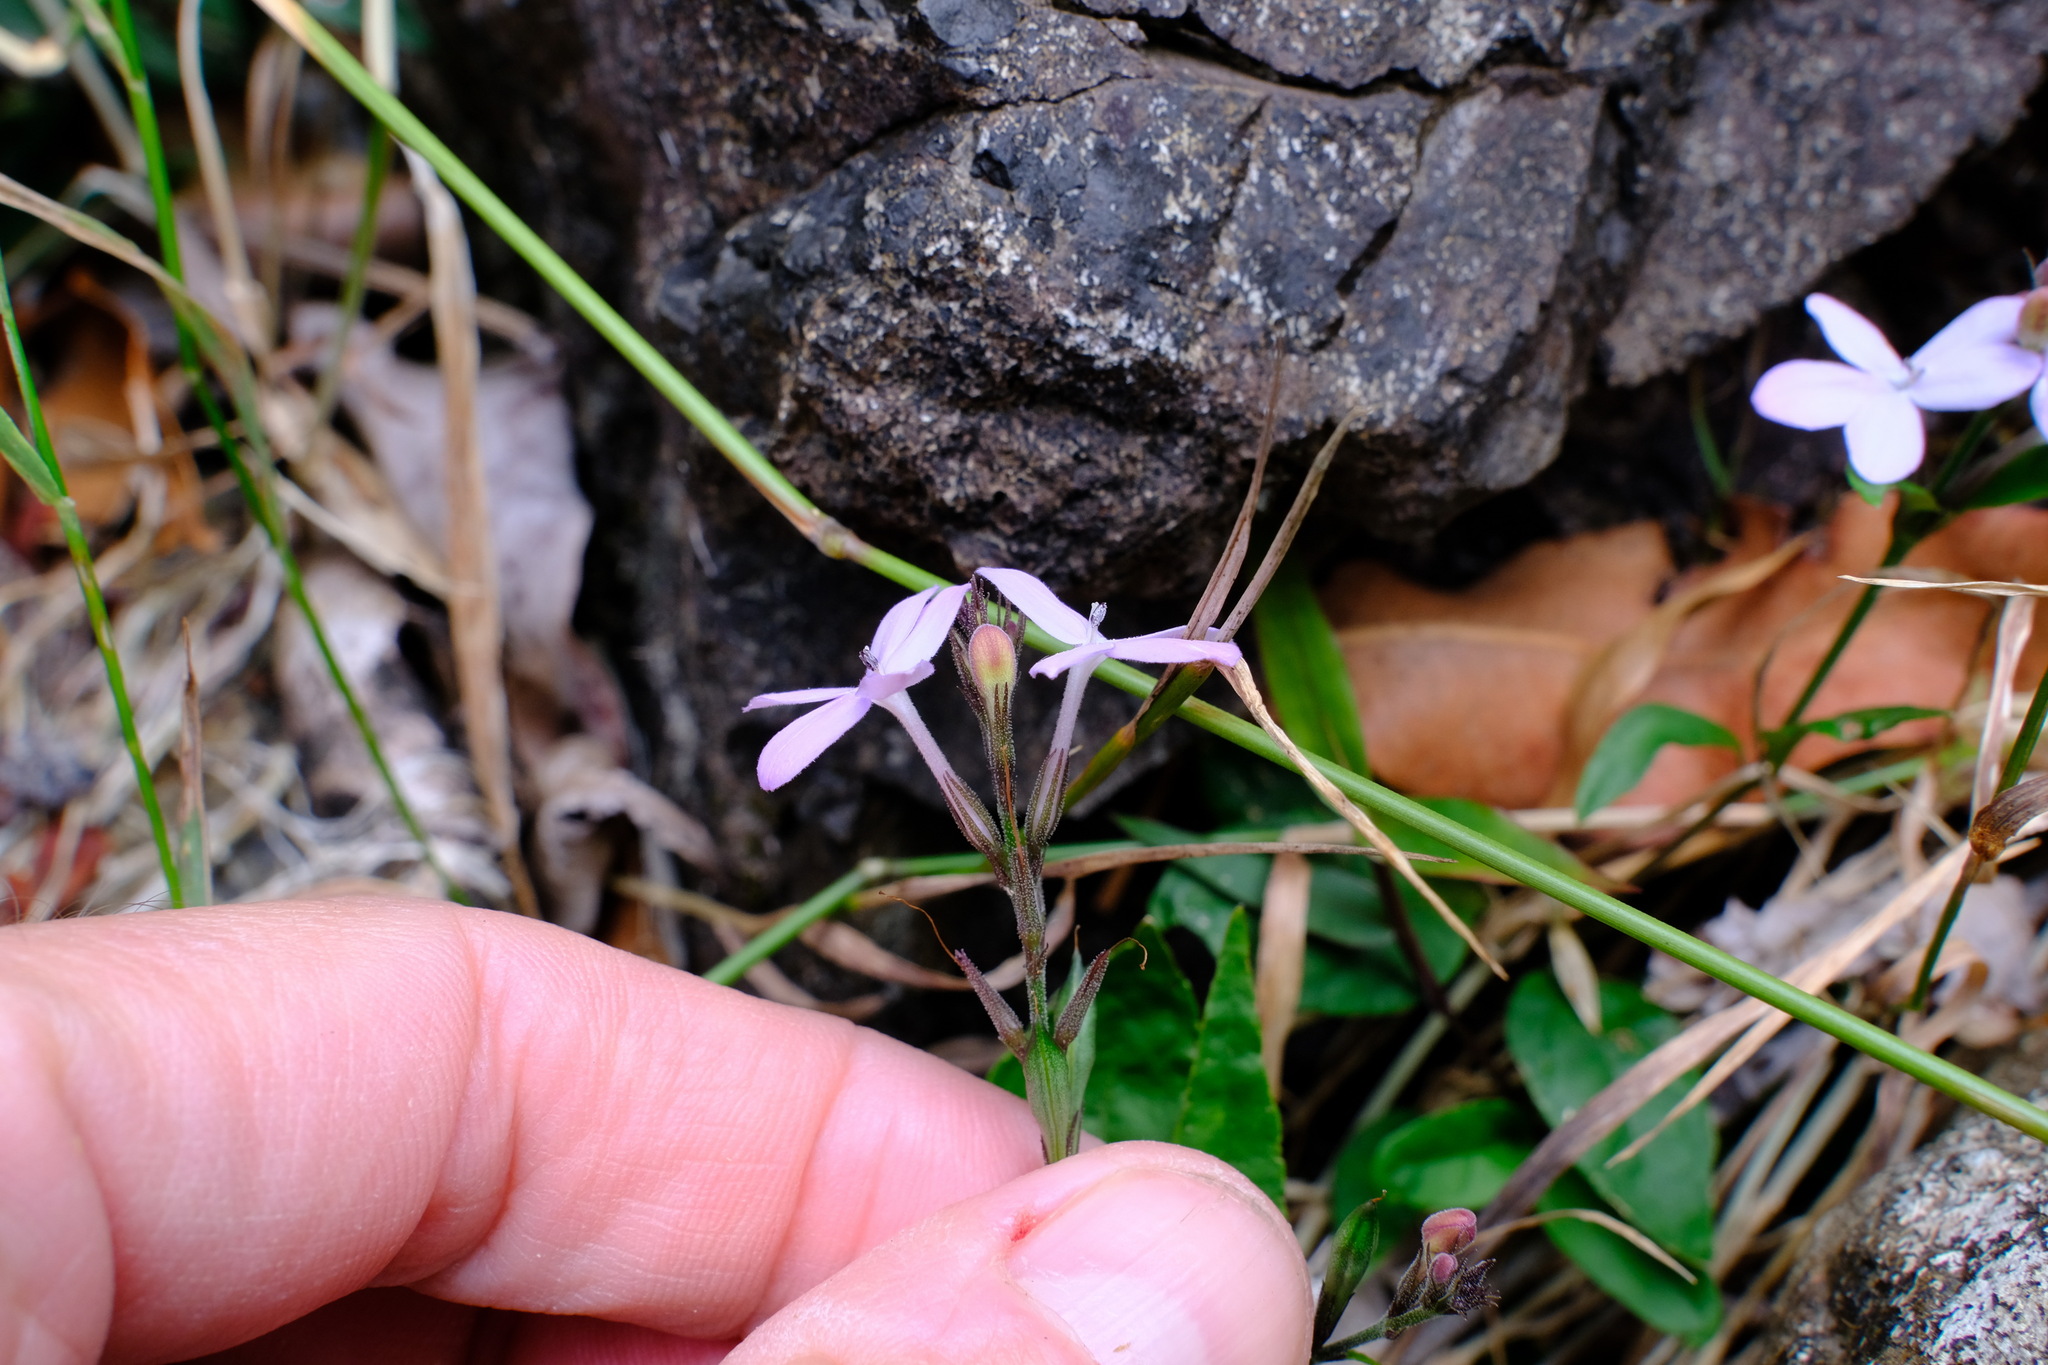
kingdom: Plantae
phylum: Tracheophyta
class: Magnoliopsida
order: Lamiales
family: Acanthaceae
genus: Pseuderanthemum
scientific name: Pseuderanthemum variabile
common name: Night and afternoon
